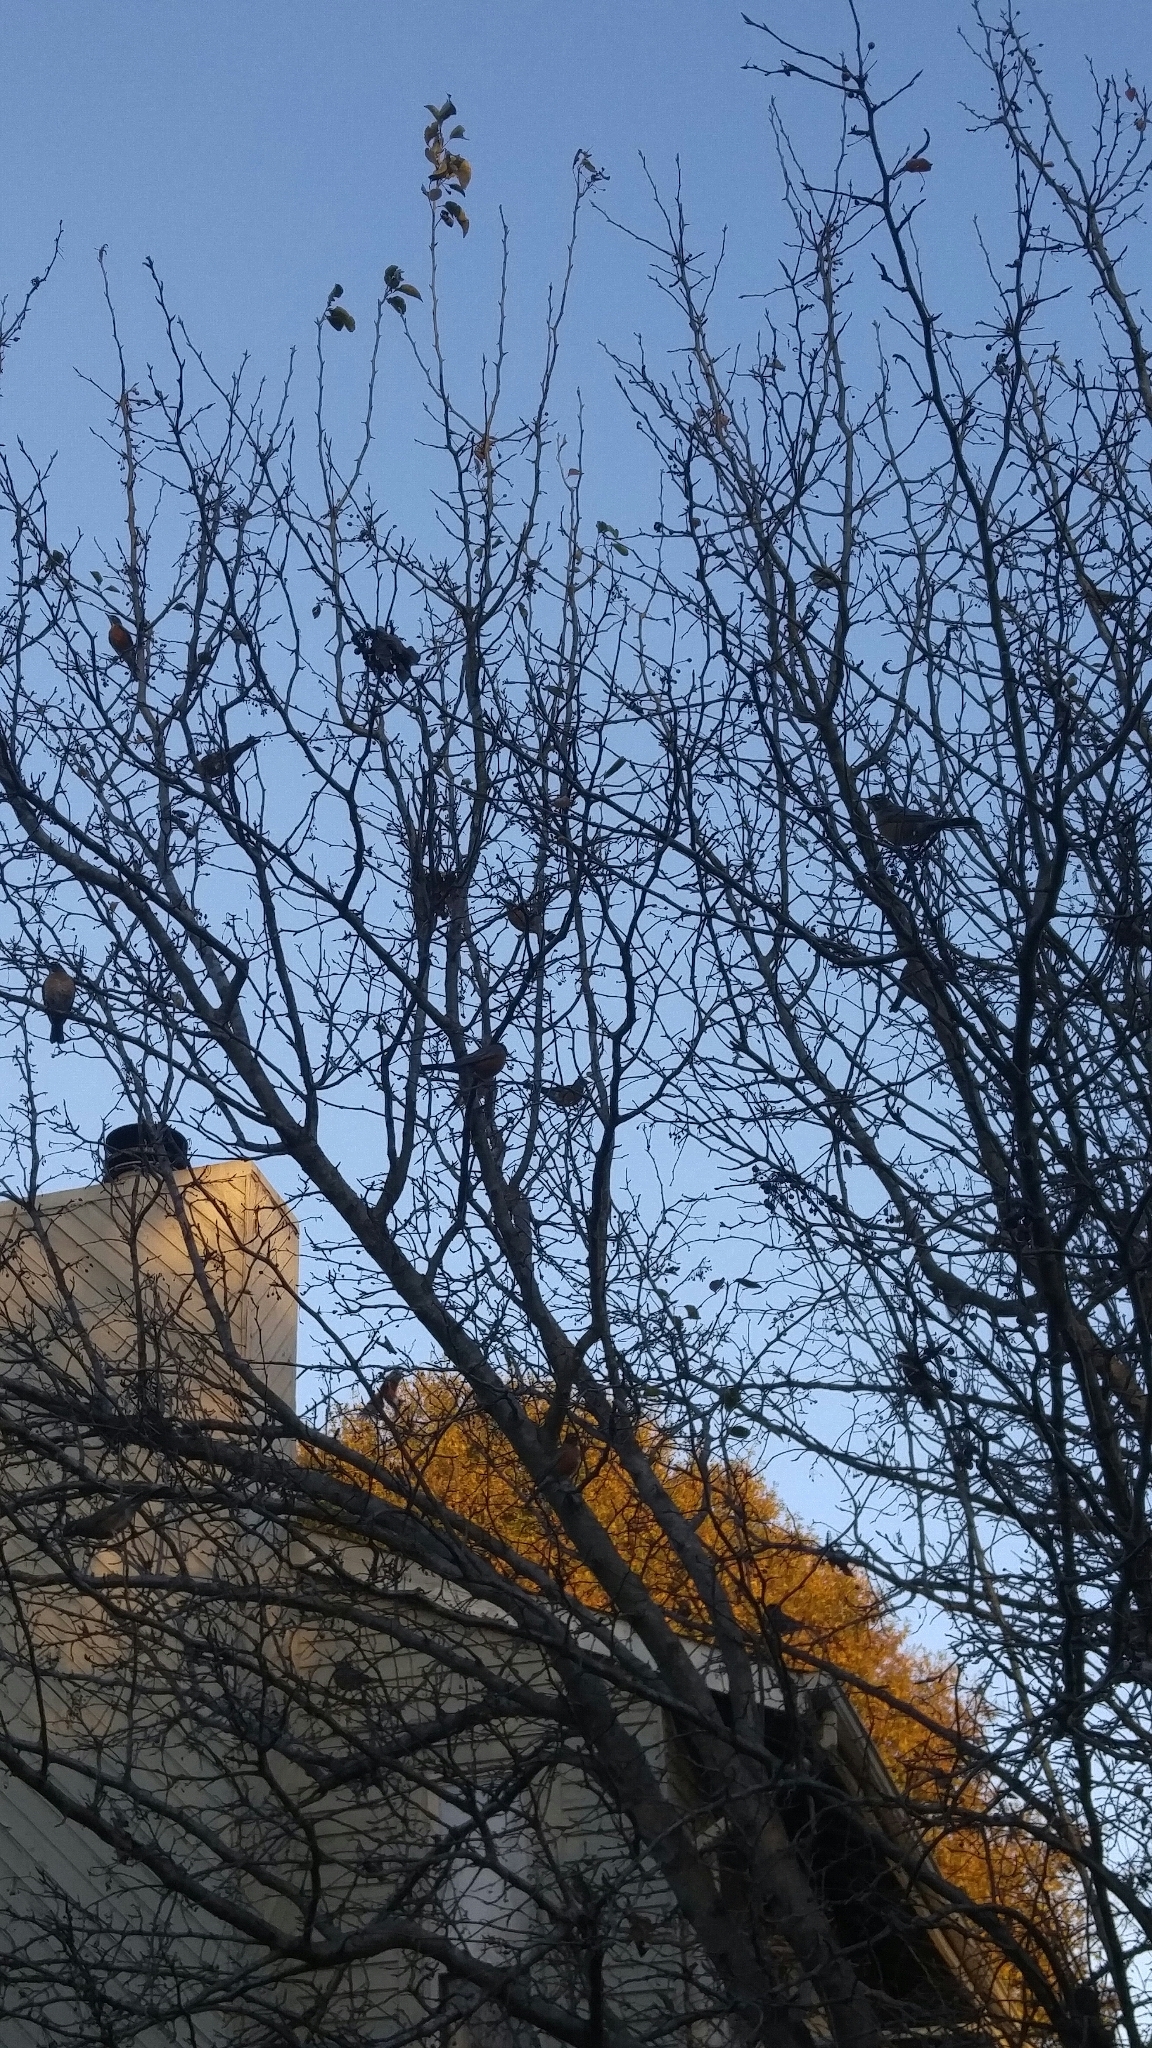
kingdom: Animalia
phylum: Chordata
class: Aves
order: Passeriformes
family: Turdidae
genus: Turdus
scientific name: Turdus migratorius
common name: American robin
